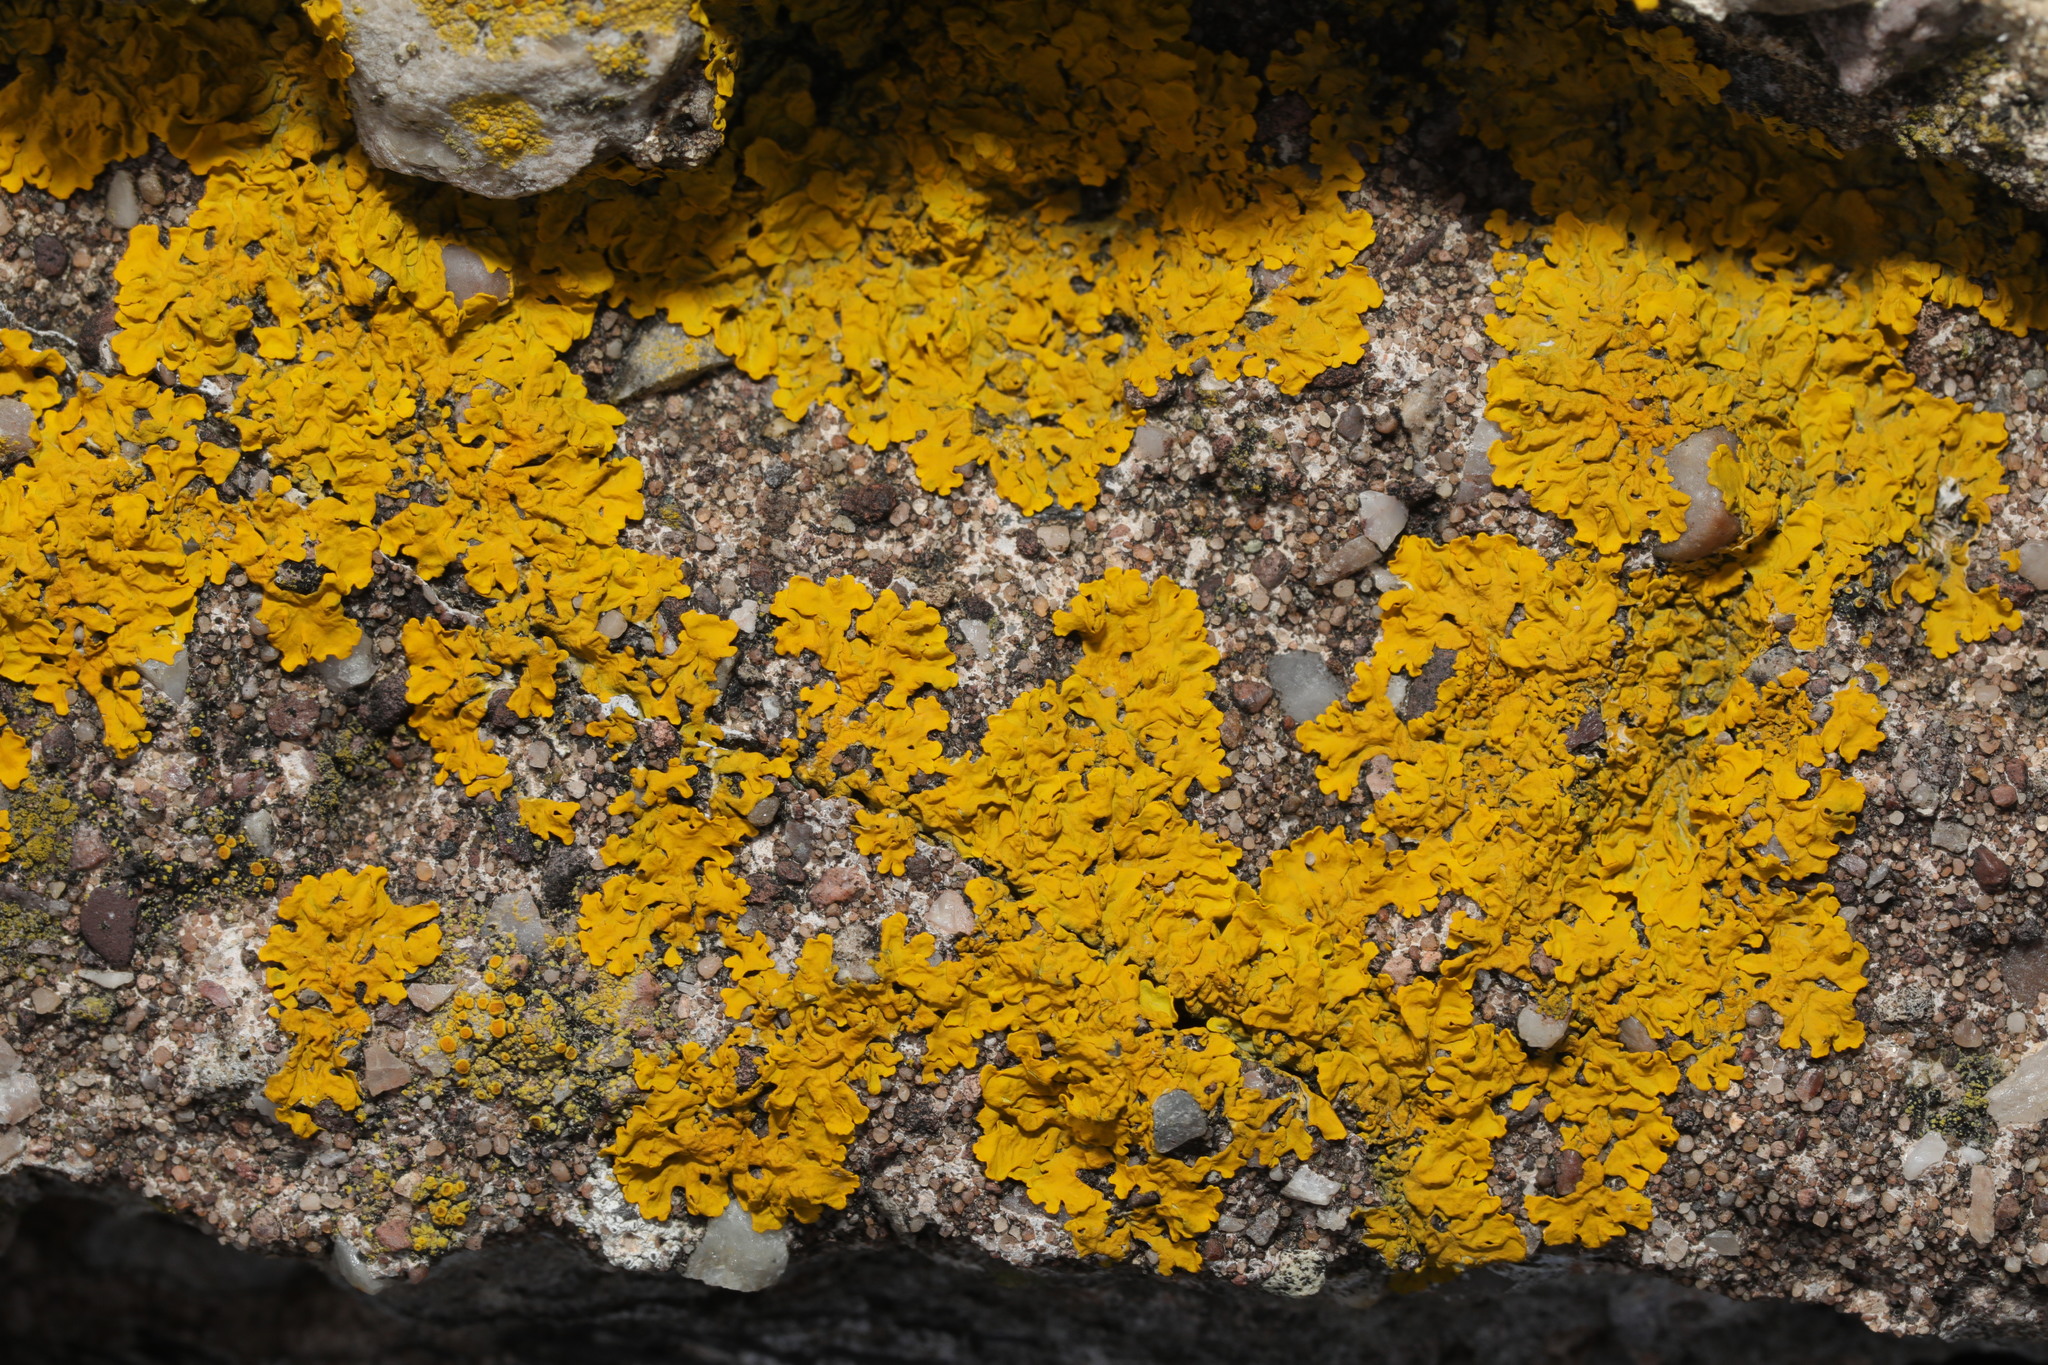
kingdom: Fungi
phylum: Ascomycota
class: Lecanoromycetes
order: Teloschistales
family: Teloschistaceae
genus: Xanthoria
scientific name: Xanthoria parietina
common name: Common orange lichen
